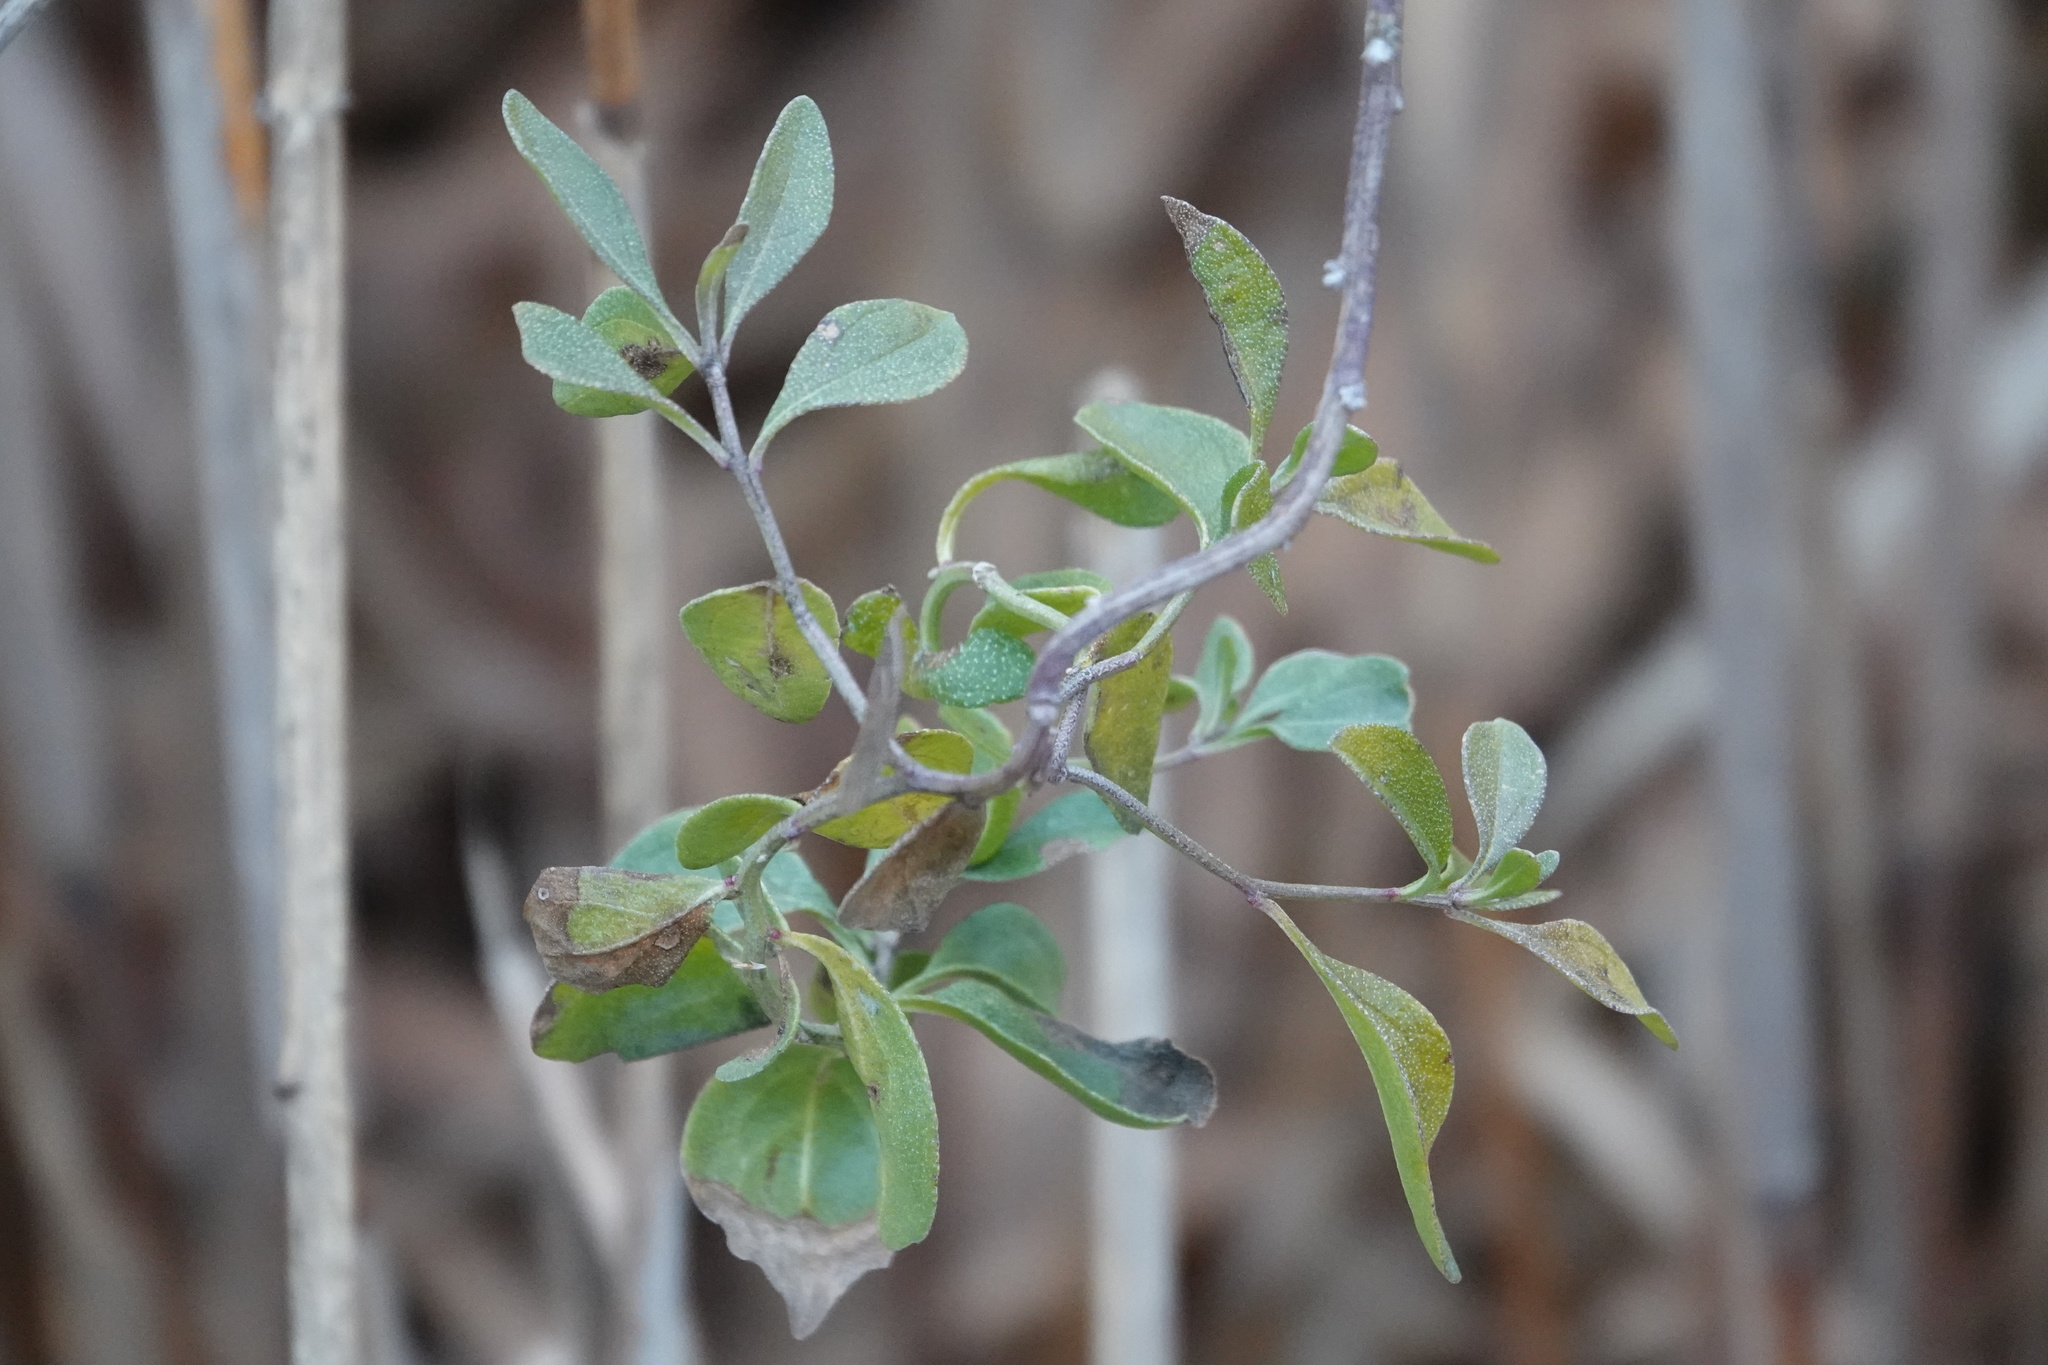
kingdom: Plantae
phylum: Tracheophyta
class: Magnoliopsida
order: Asterales
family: Asteraceae
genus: Baccharis
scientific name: Baccharis halimifolia
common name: Eastern baccharis
